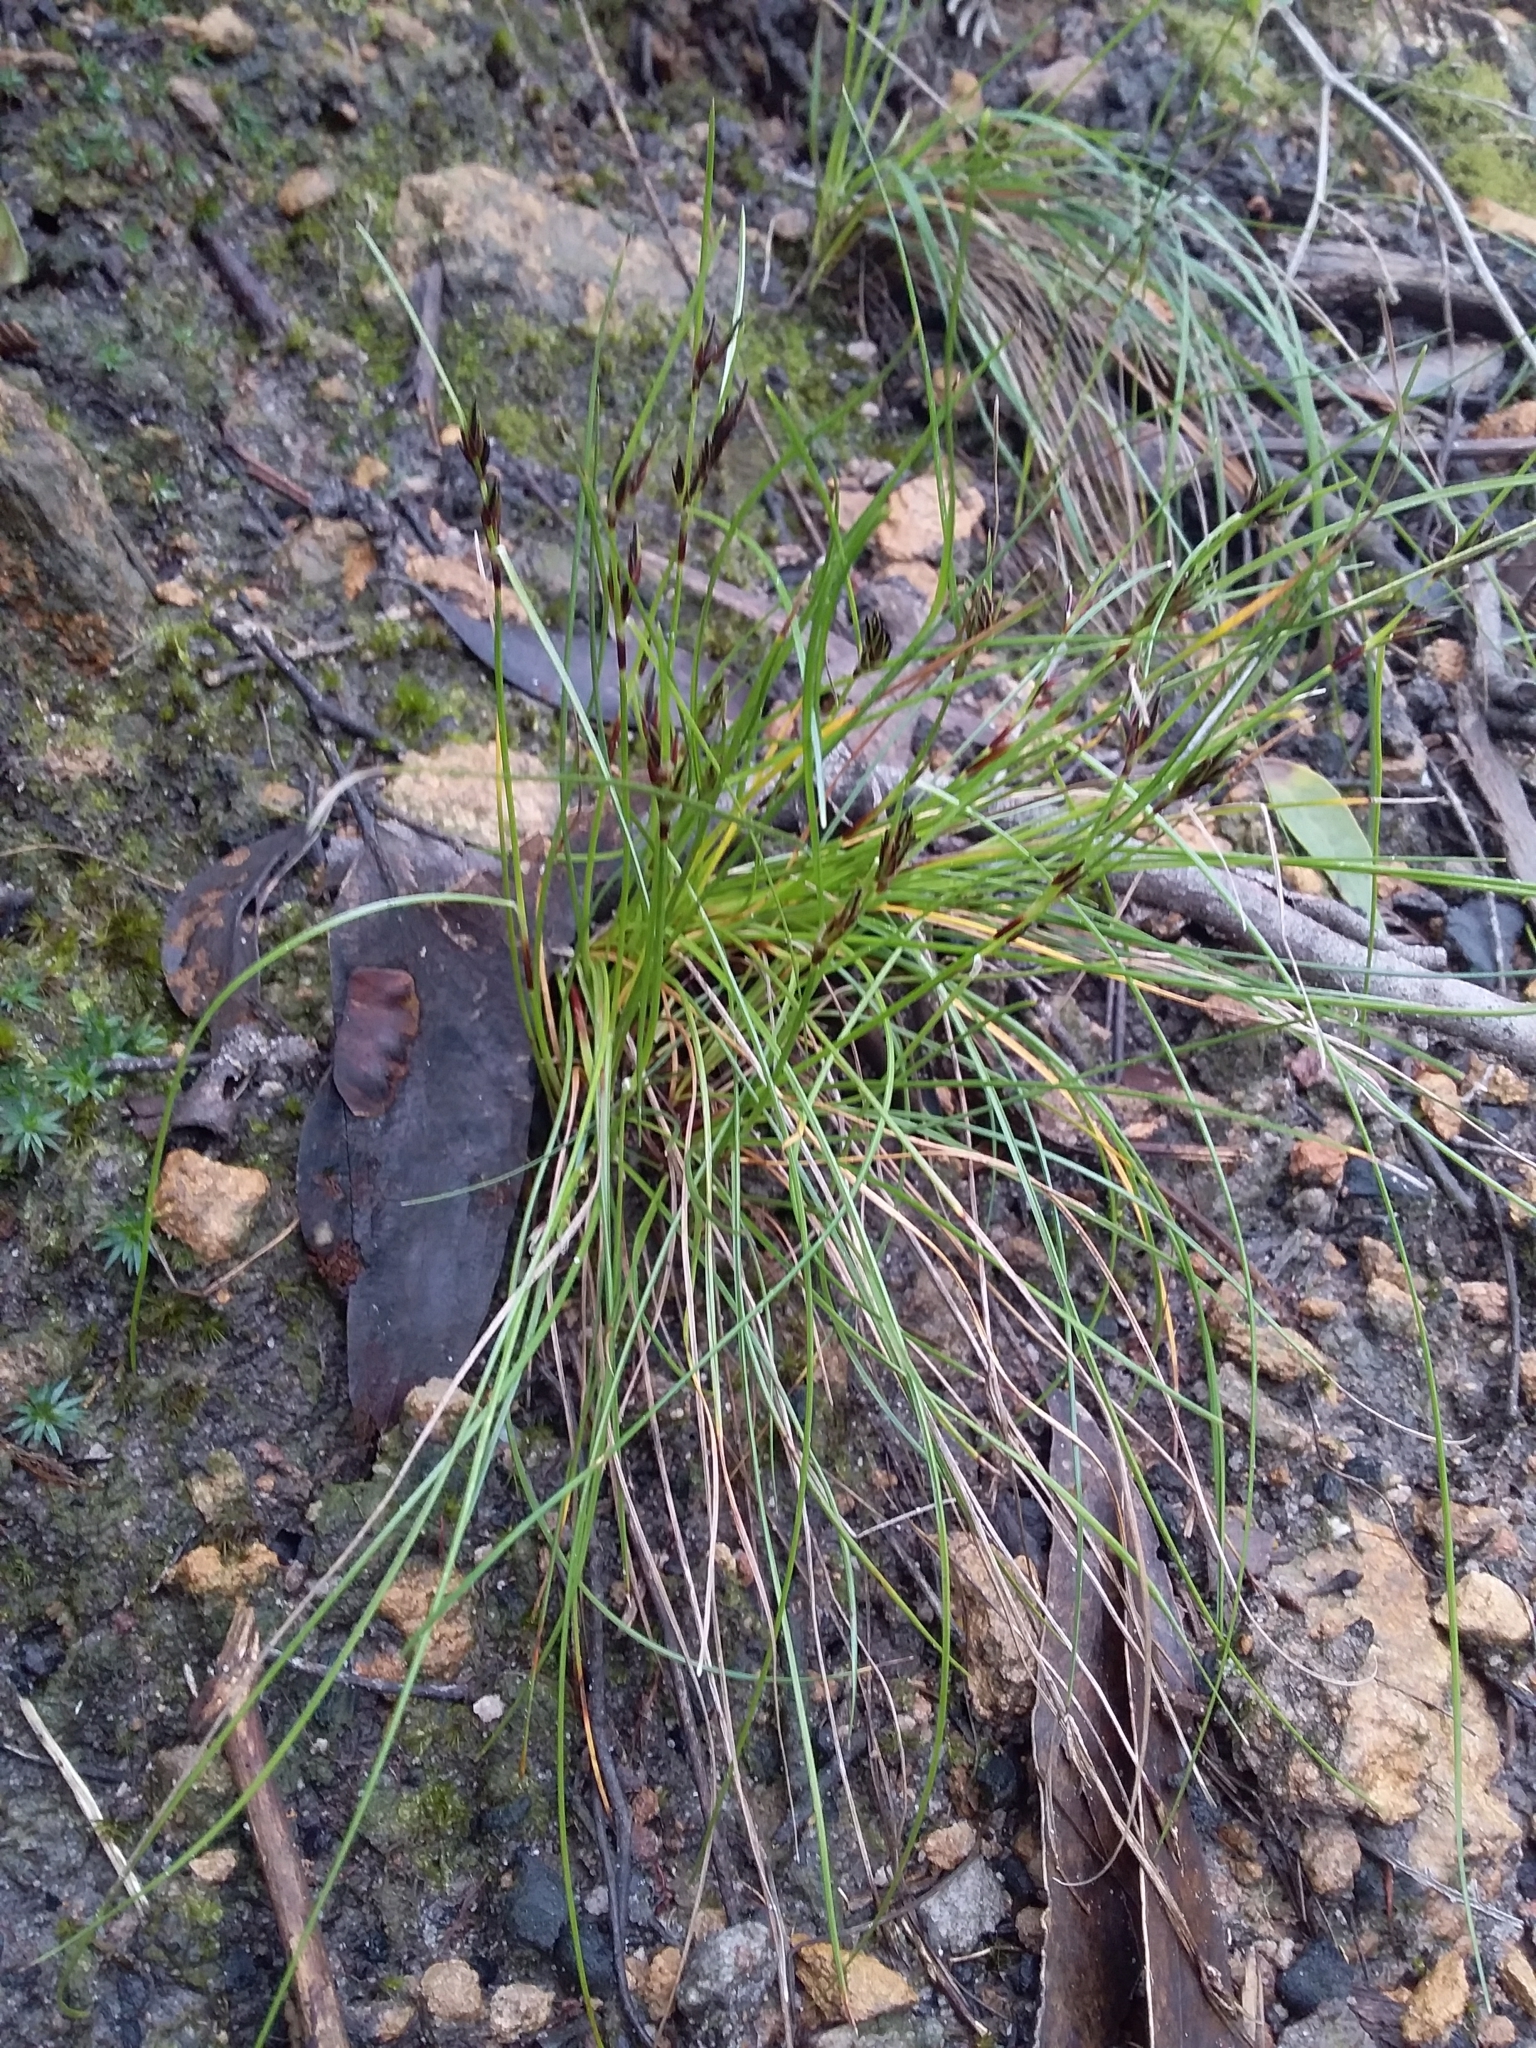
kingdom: Plantae
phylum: Tracheophyta
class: Liliopsida
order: Poales
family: Cyperaceae
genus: Schoenus
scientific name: Schoenus apogon
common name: Smooth bogrush
